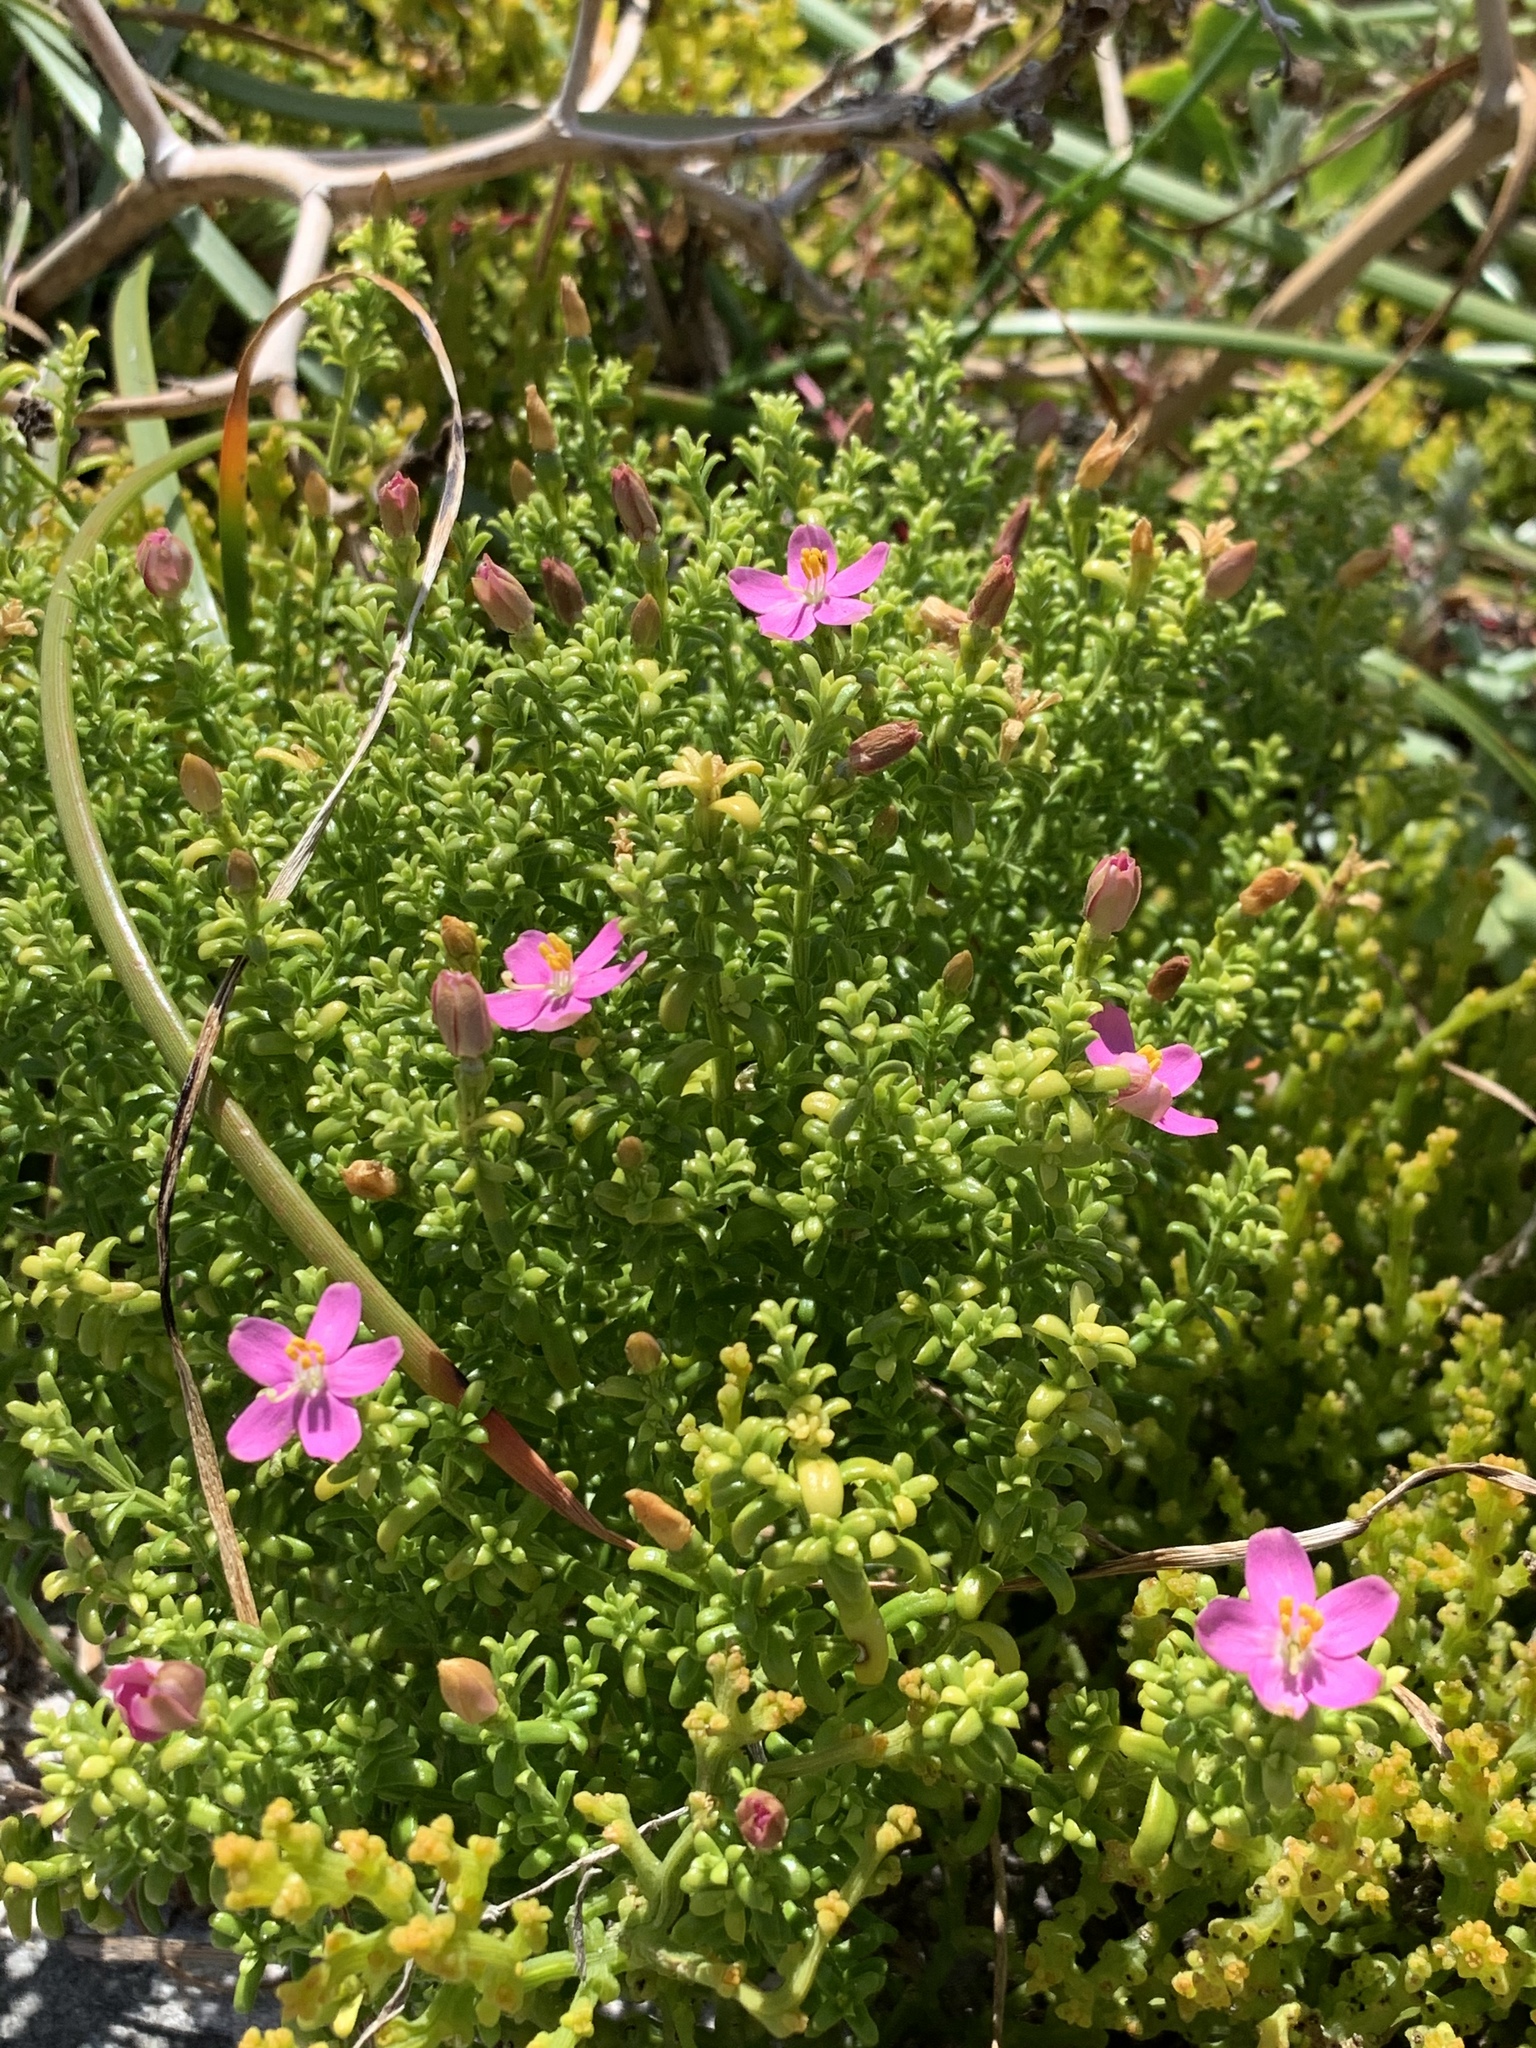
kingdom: Plantae
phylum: Tracheophyta
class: Magnoliopsida
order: Gentianales
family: Gentianaceae
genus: Chironia
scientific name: Chironia baccifera
